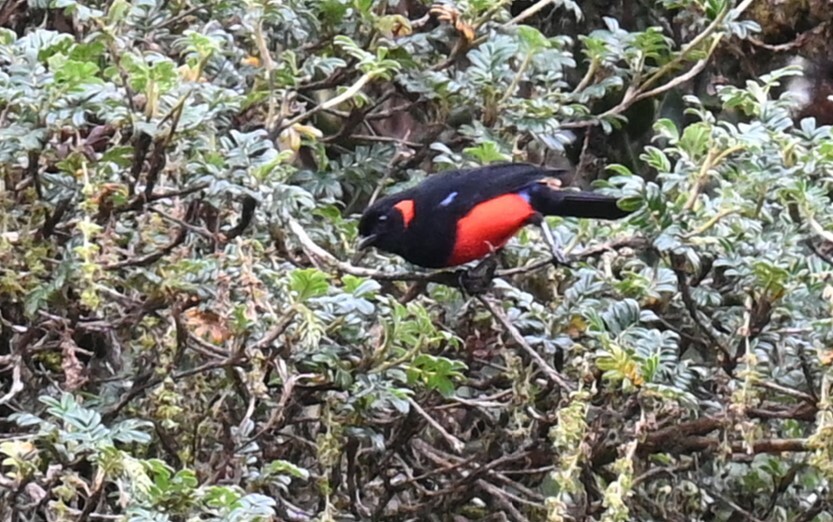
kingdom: Animalia
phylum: Chordata
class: Aves
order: Passeriformes
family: Thraupidae
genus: Anisognathus
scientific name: Anisognathus igniventris
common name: Scarlet-bellied mountain tanager
